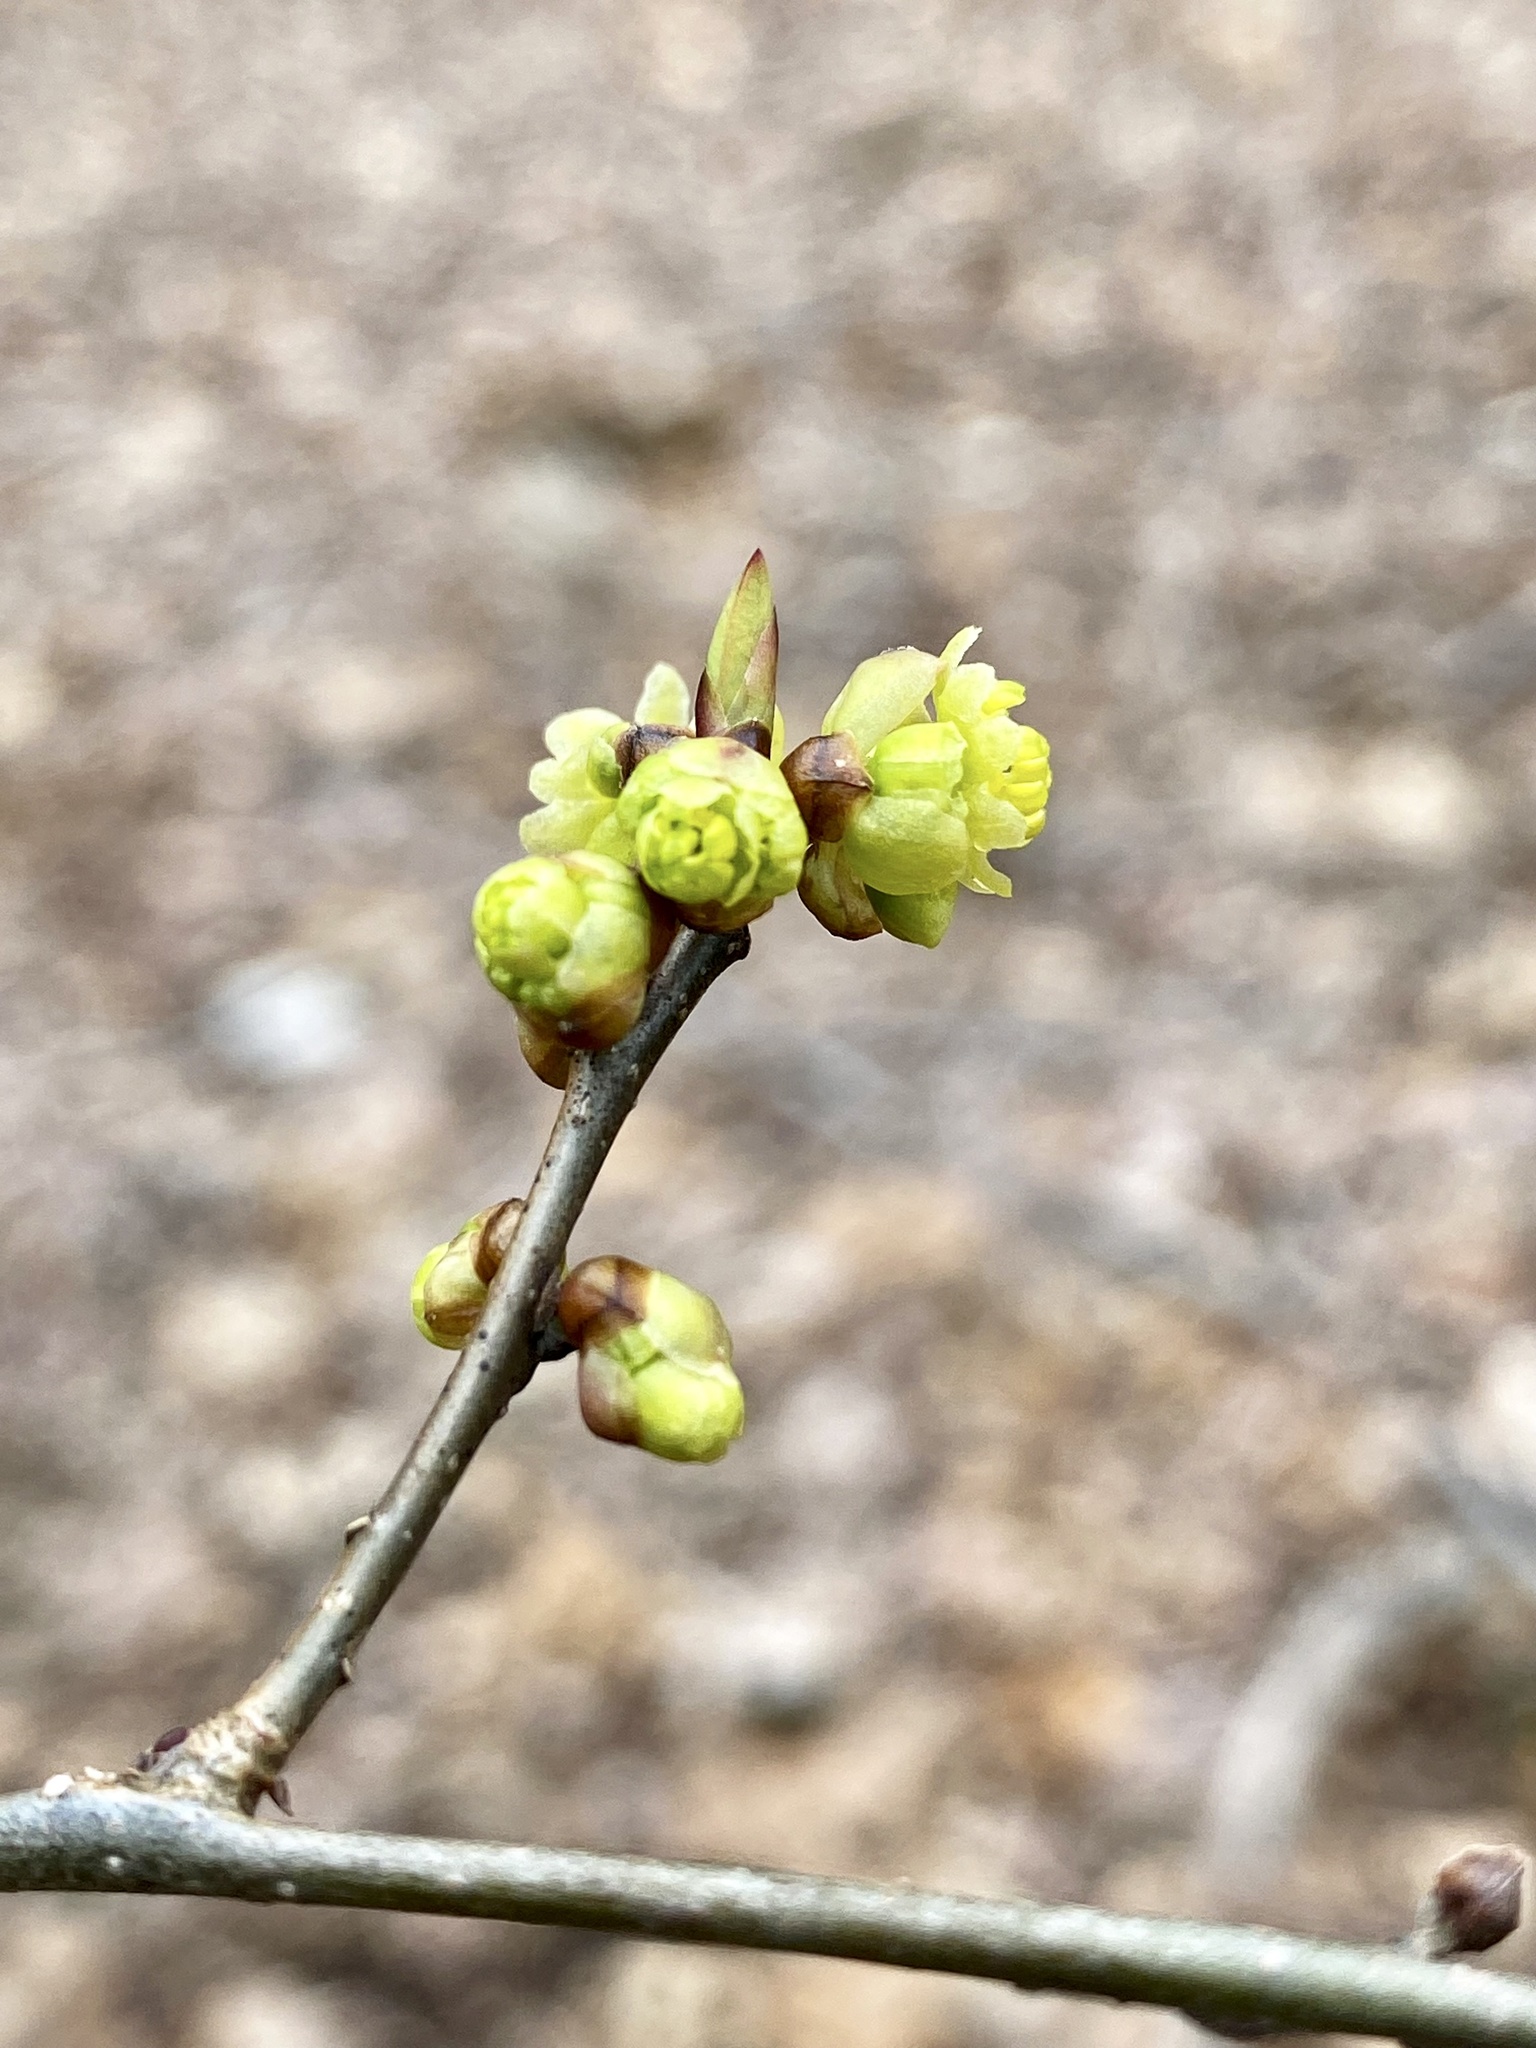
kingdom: Plantae
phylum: Tracheophyta
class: Magnoliopsida
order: Laurales
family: Lauraceae
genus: Lindera
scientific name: Lindera benzoin
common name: Spicebush
